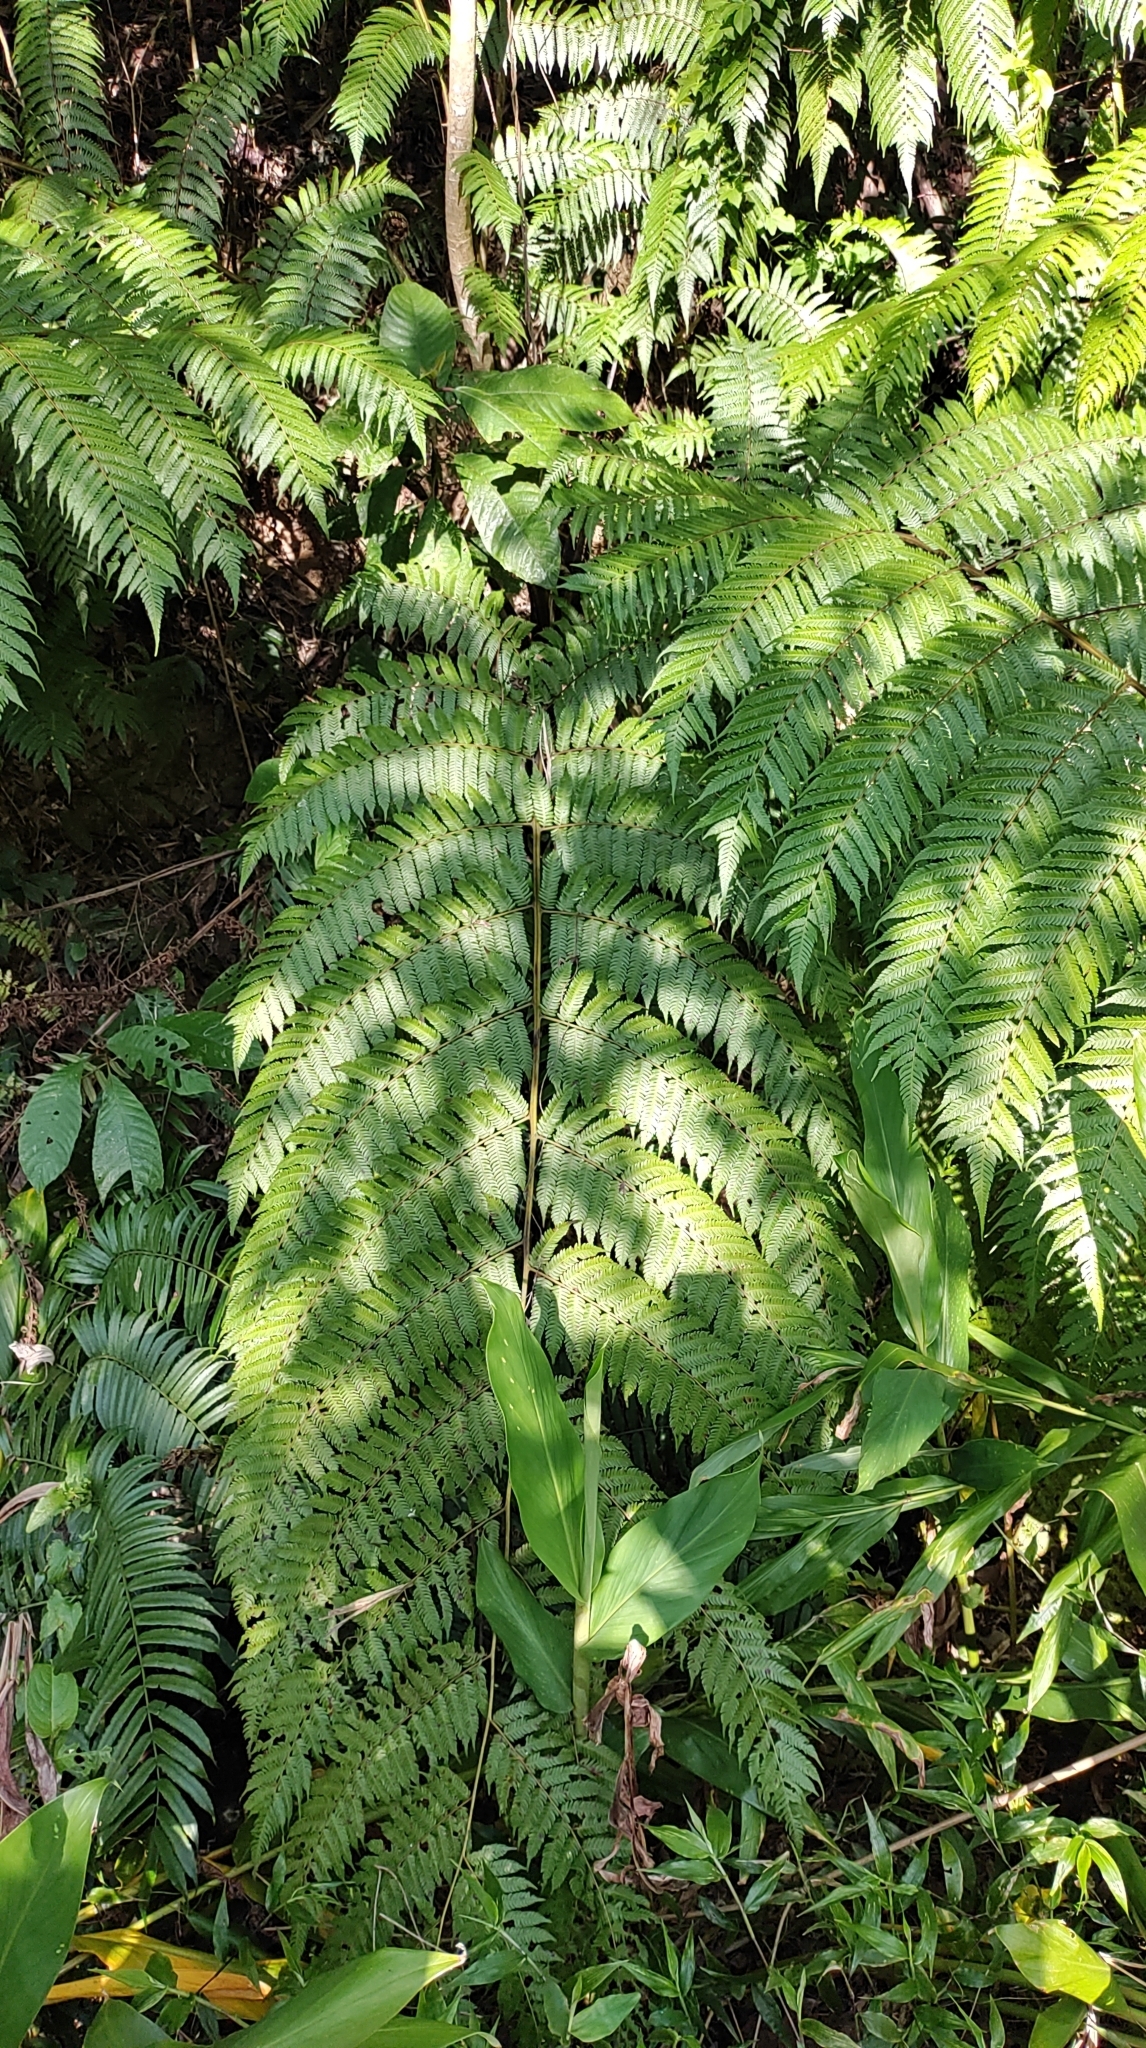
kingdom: Plantae
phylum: Tracheophyta
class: Polypodiopsida
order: Cyatheales
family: Cyatheaceae
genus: Alsophila
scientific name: Alsophila spinulosa
